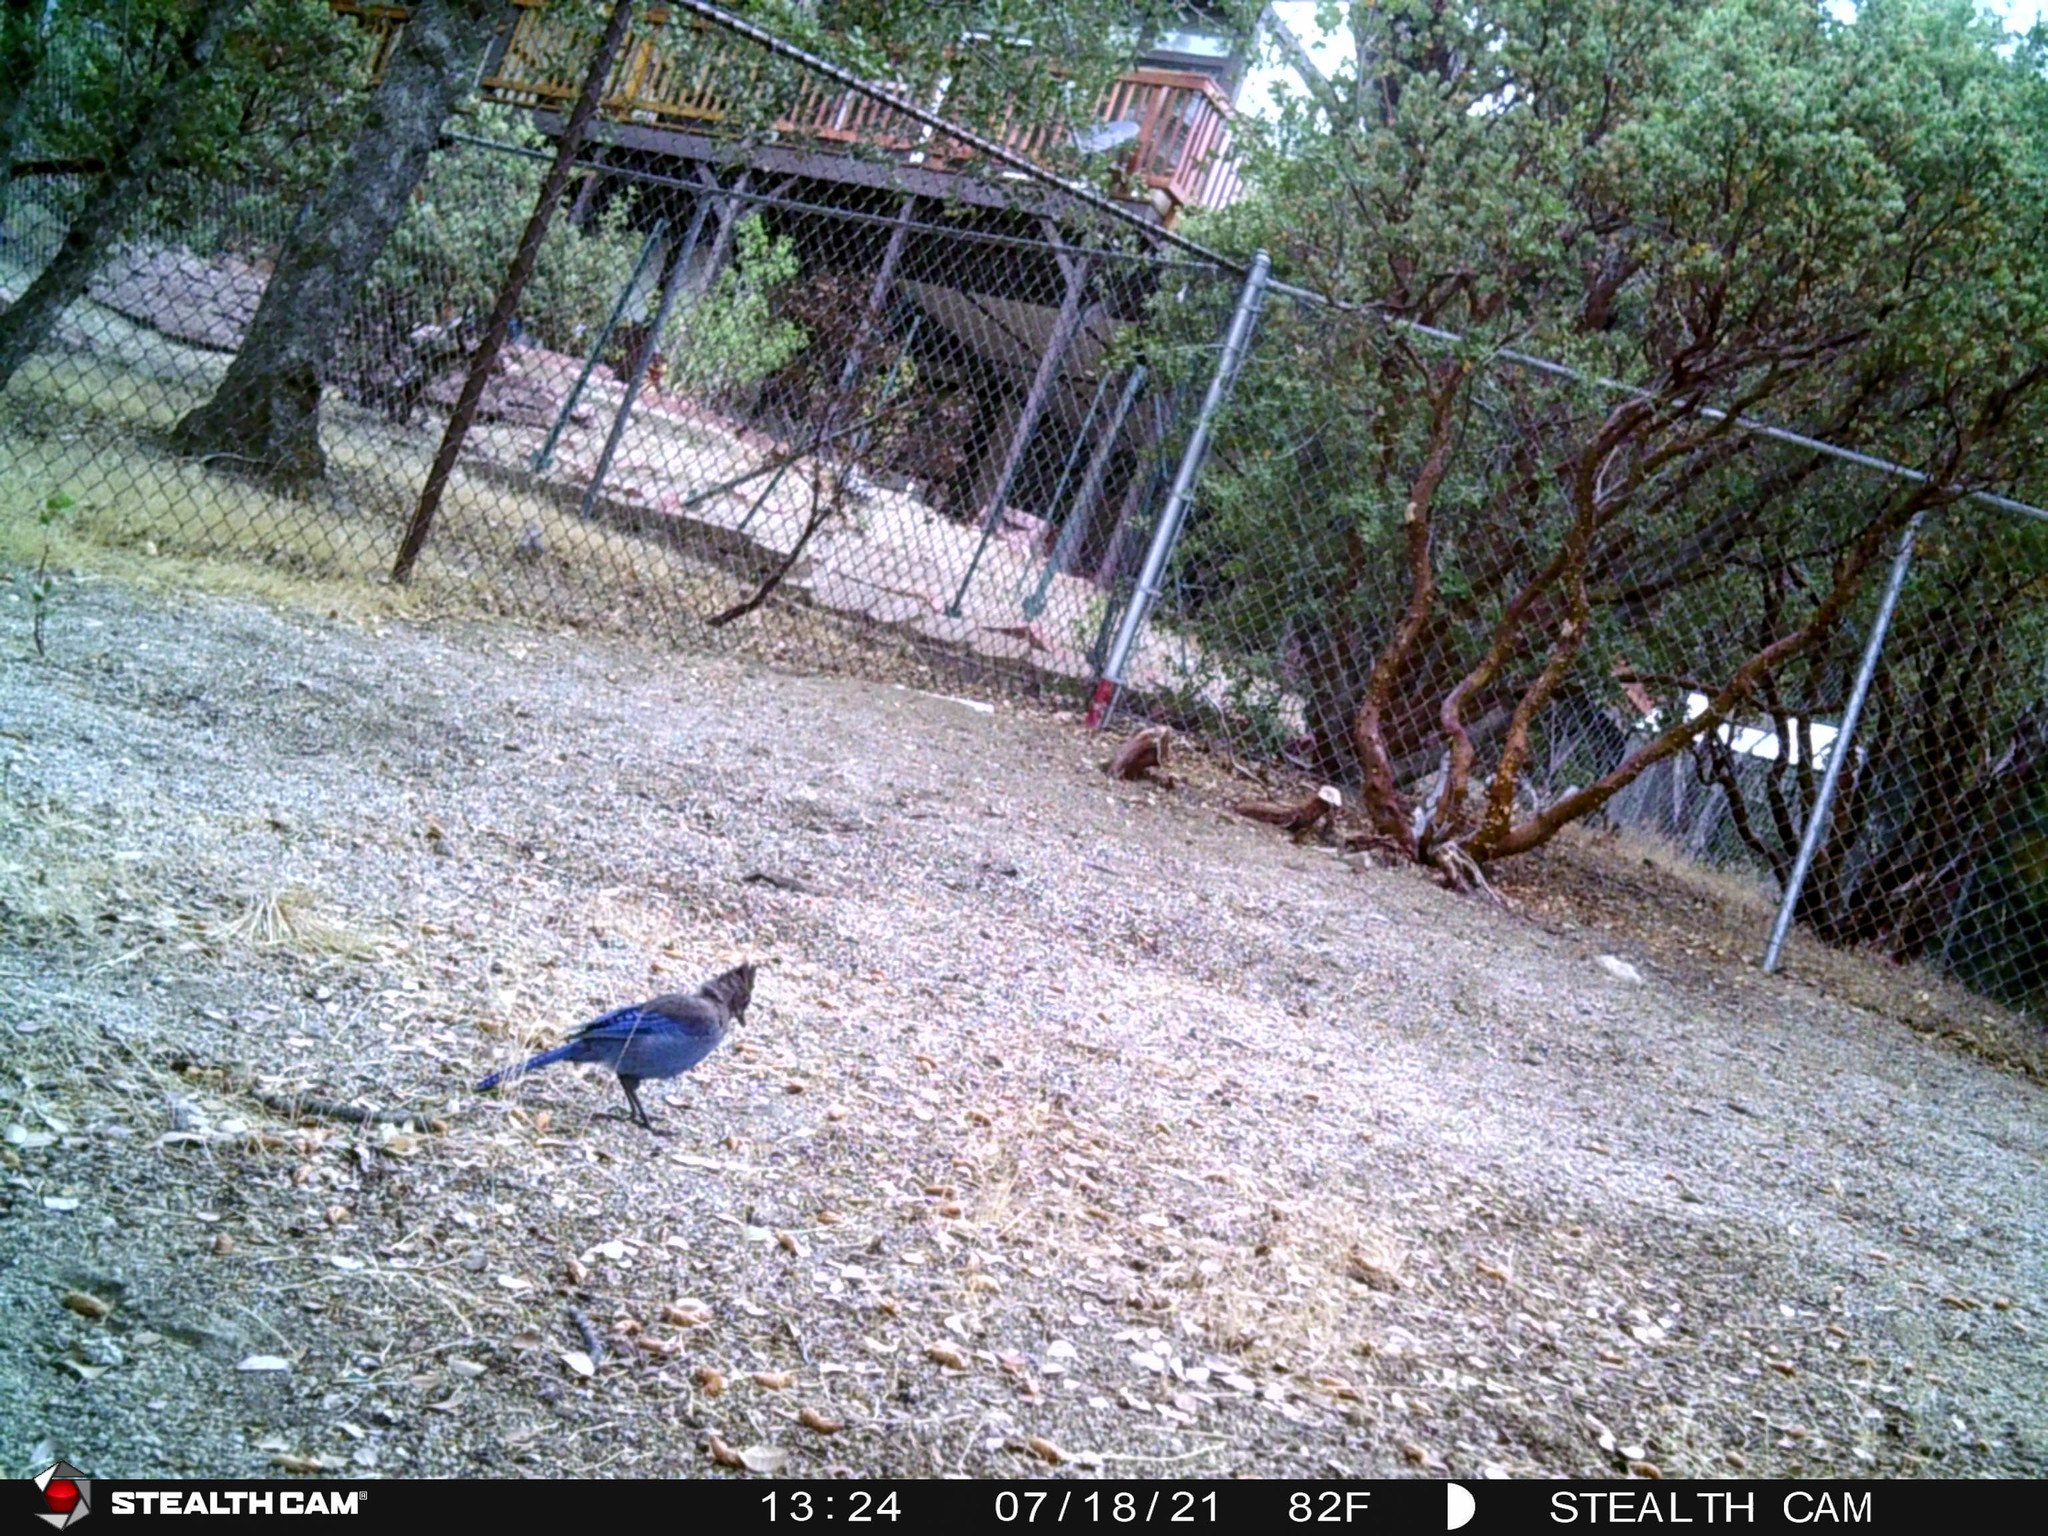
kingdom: Animalia
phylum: Chordata
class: Aves
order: Passeriformes
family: Corvidae
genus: Cyanocitta
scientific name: Cyanocitta stelleri
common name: Steller's jay
